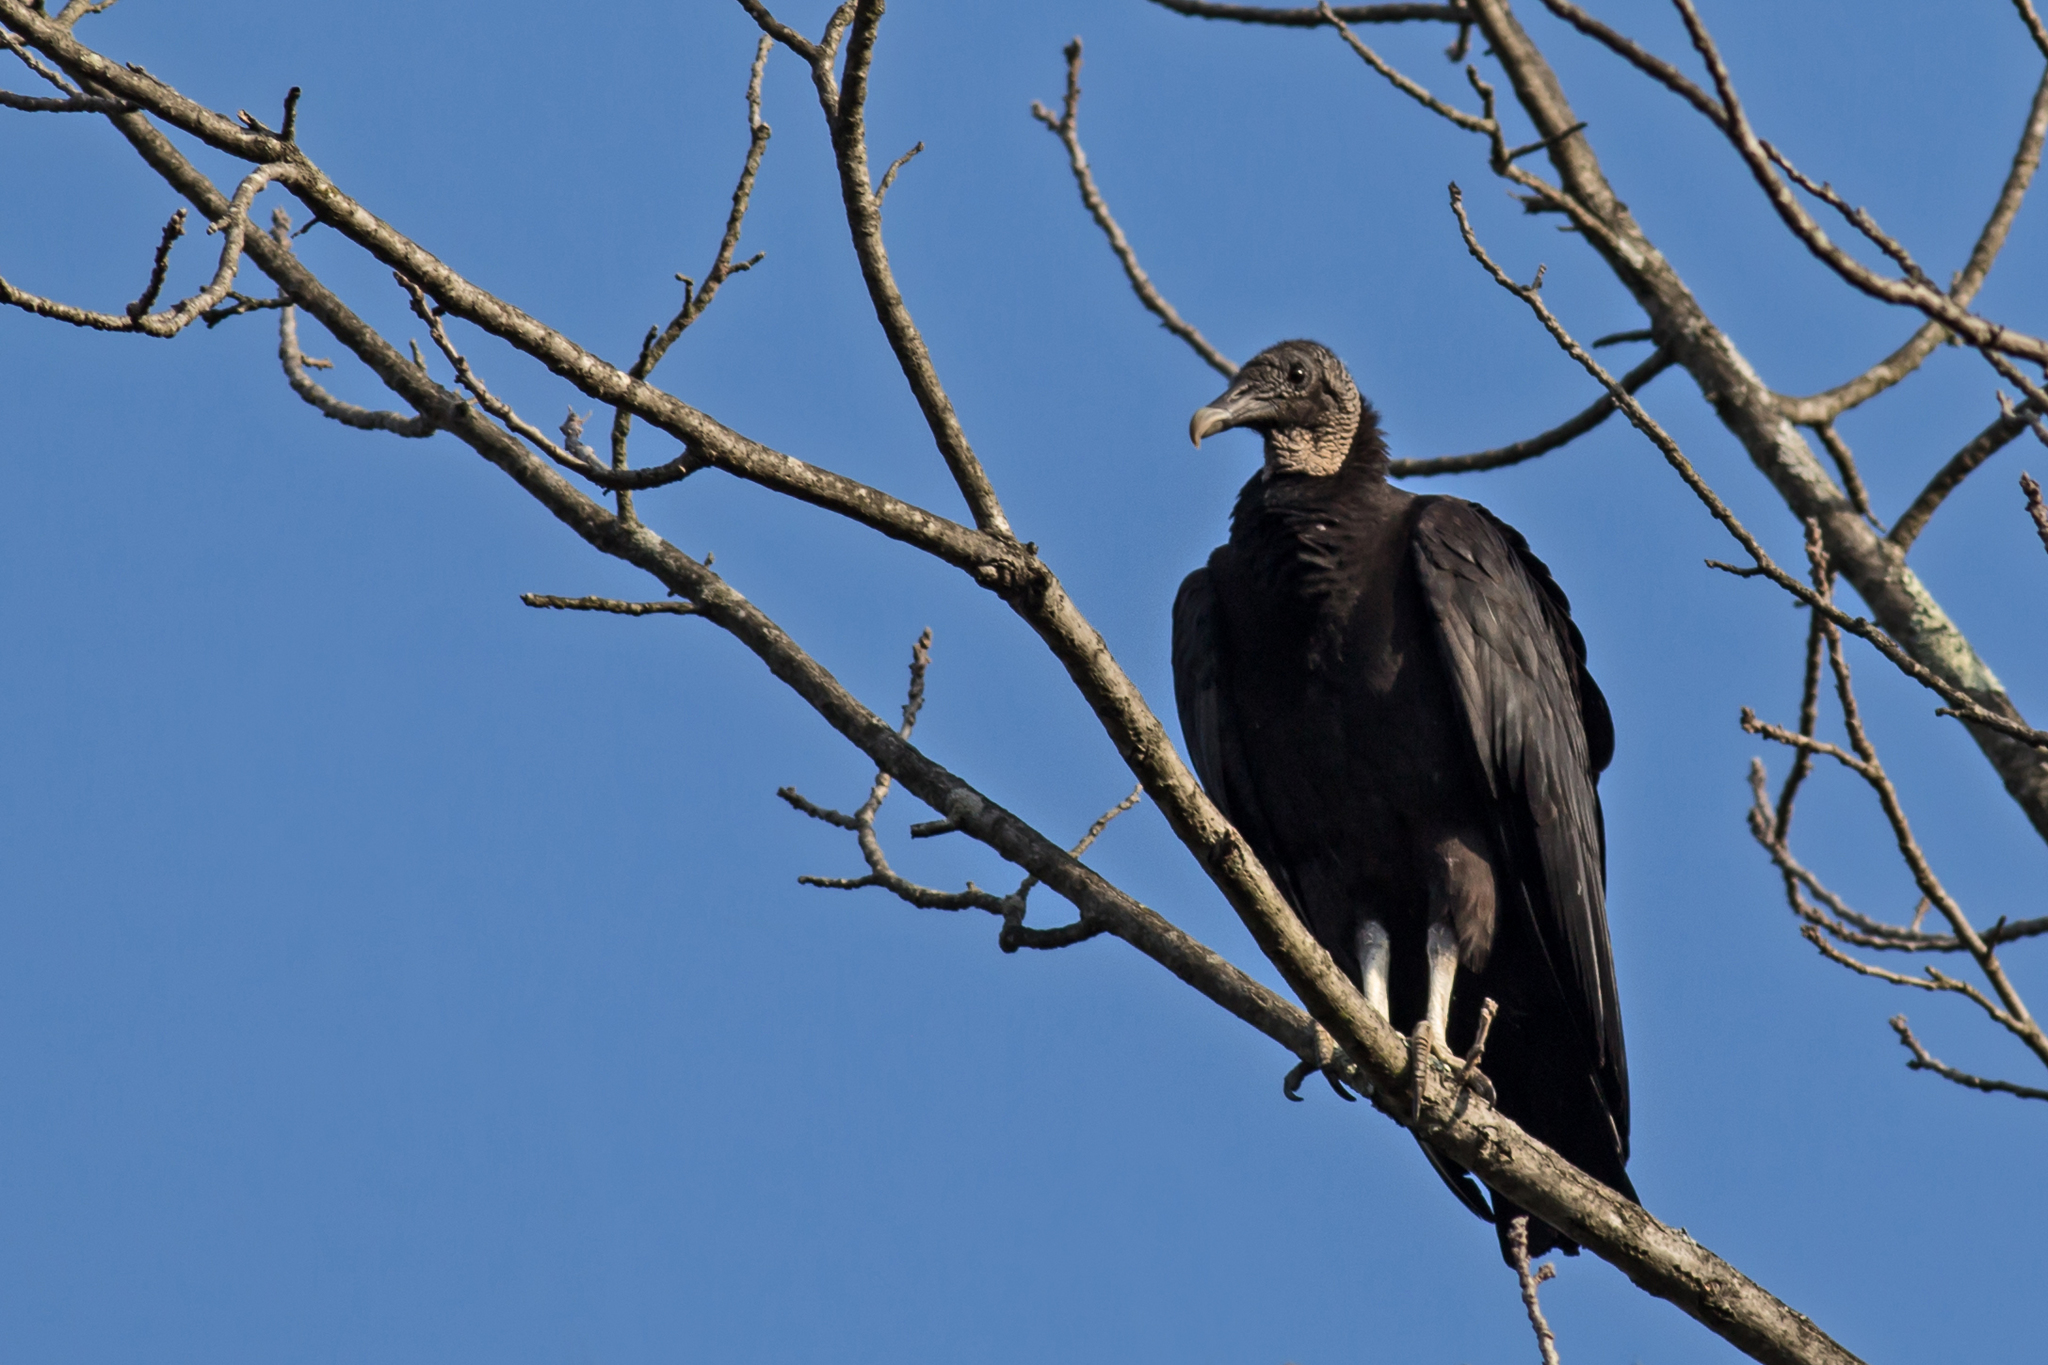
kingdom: Animalia
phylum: Chordata
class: Aves
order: Accipitriformes
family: Cathartidae
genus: Coragyps
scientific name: Coragyps atratus
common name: Black vulture
